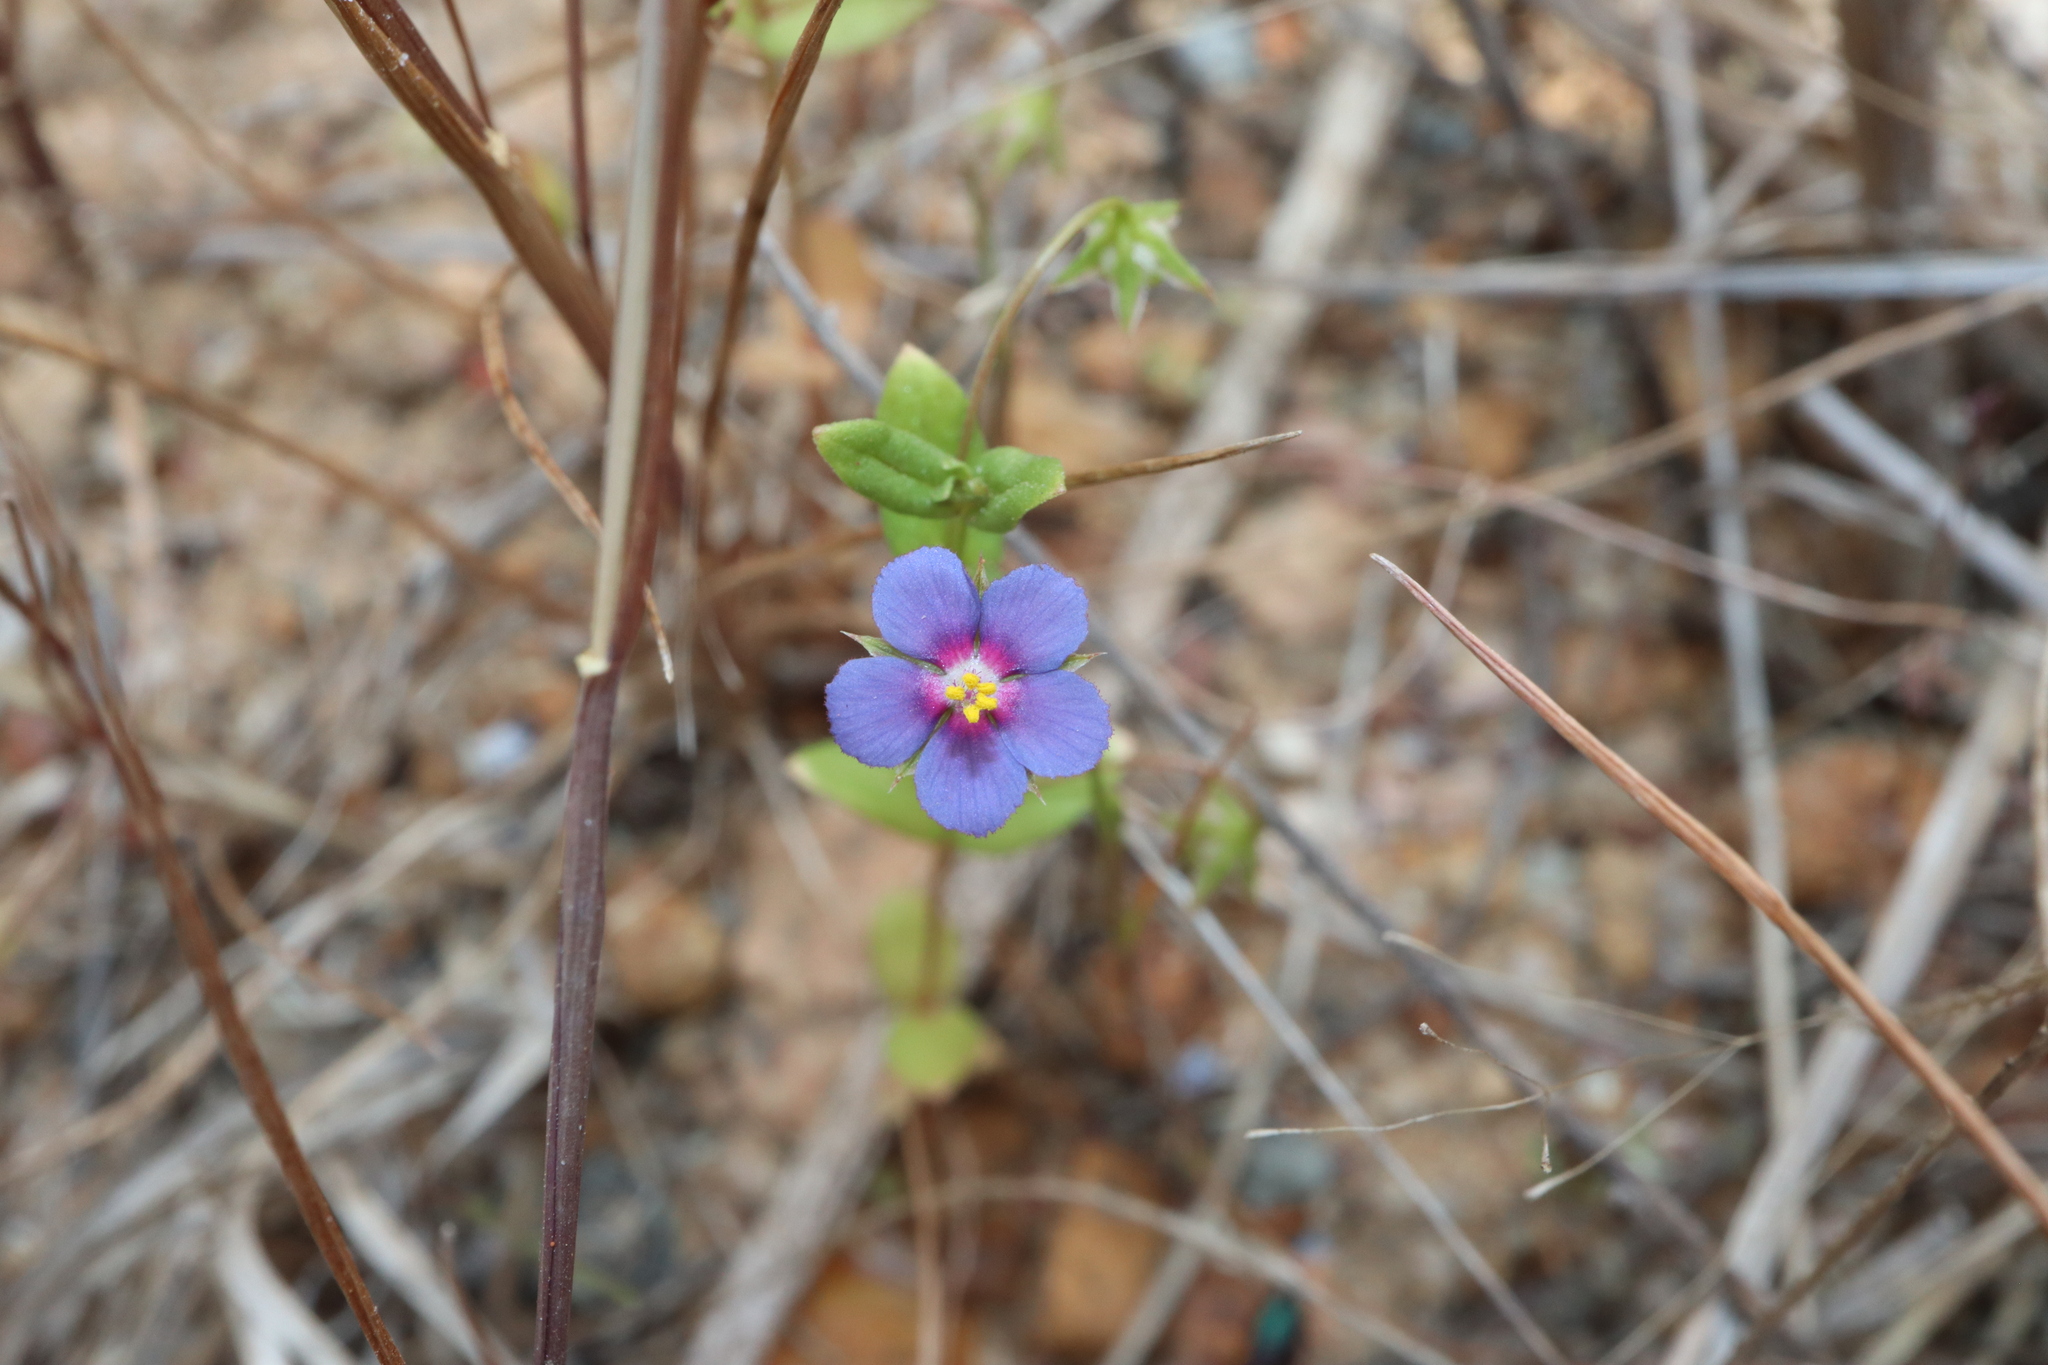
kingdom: Plantae
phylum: Tracheophyta
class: Magnoliopsida
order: Ericales
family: Primulaceae
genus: Lysimachia
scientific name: Lysimachia loeflingii
